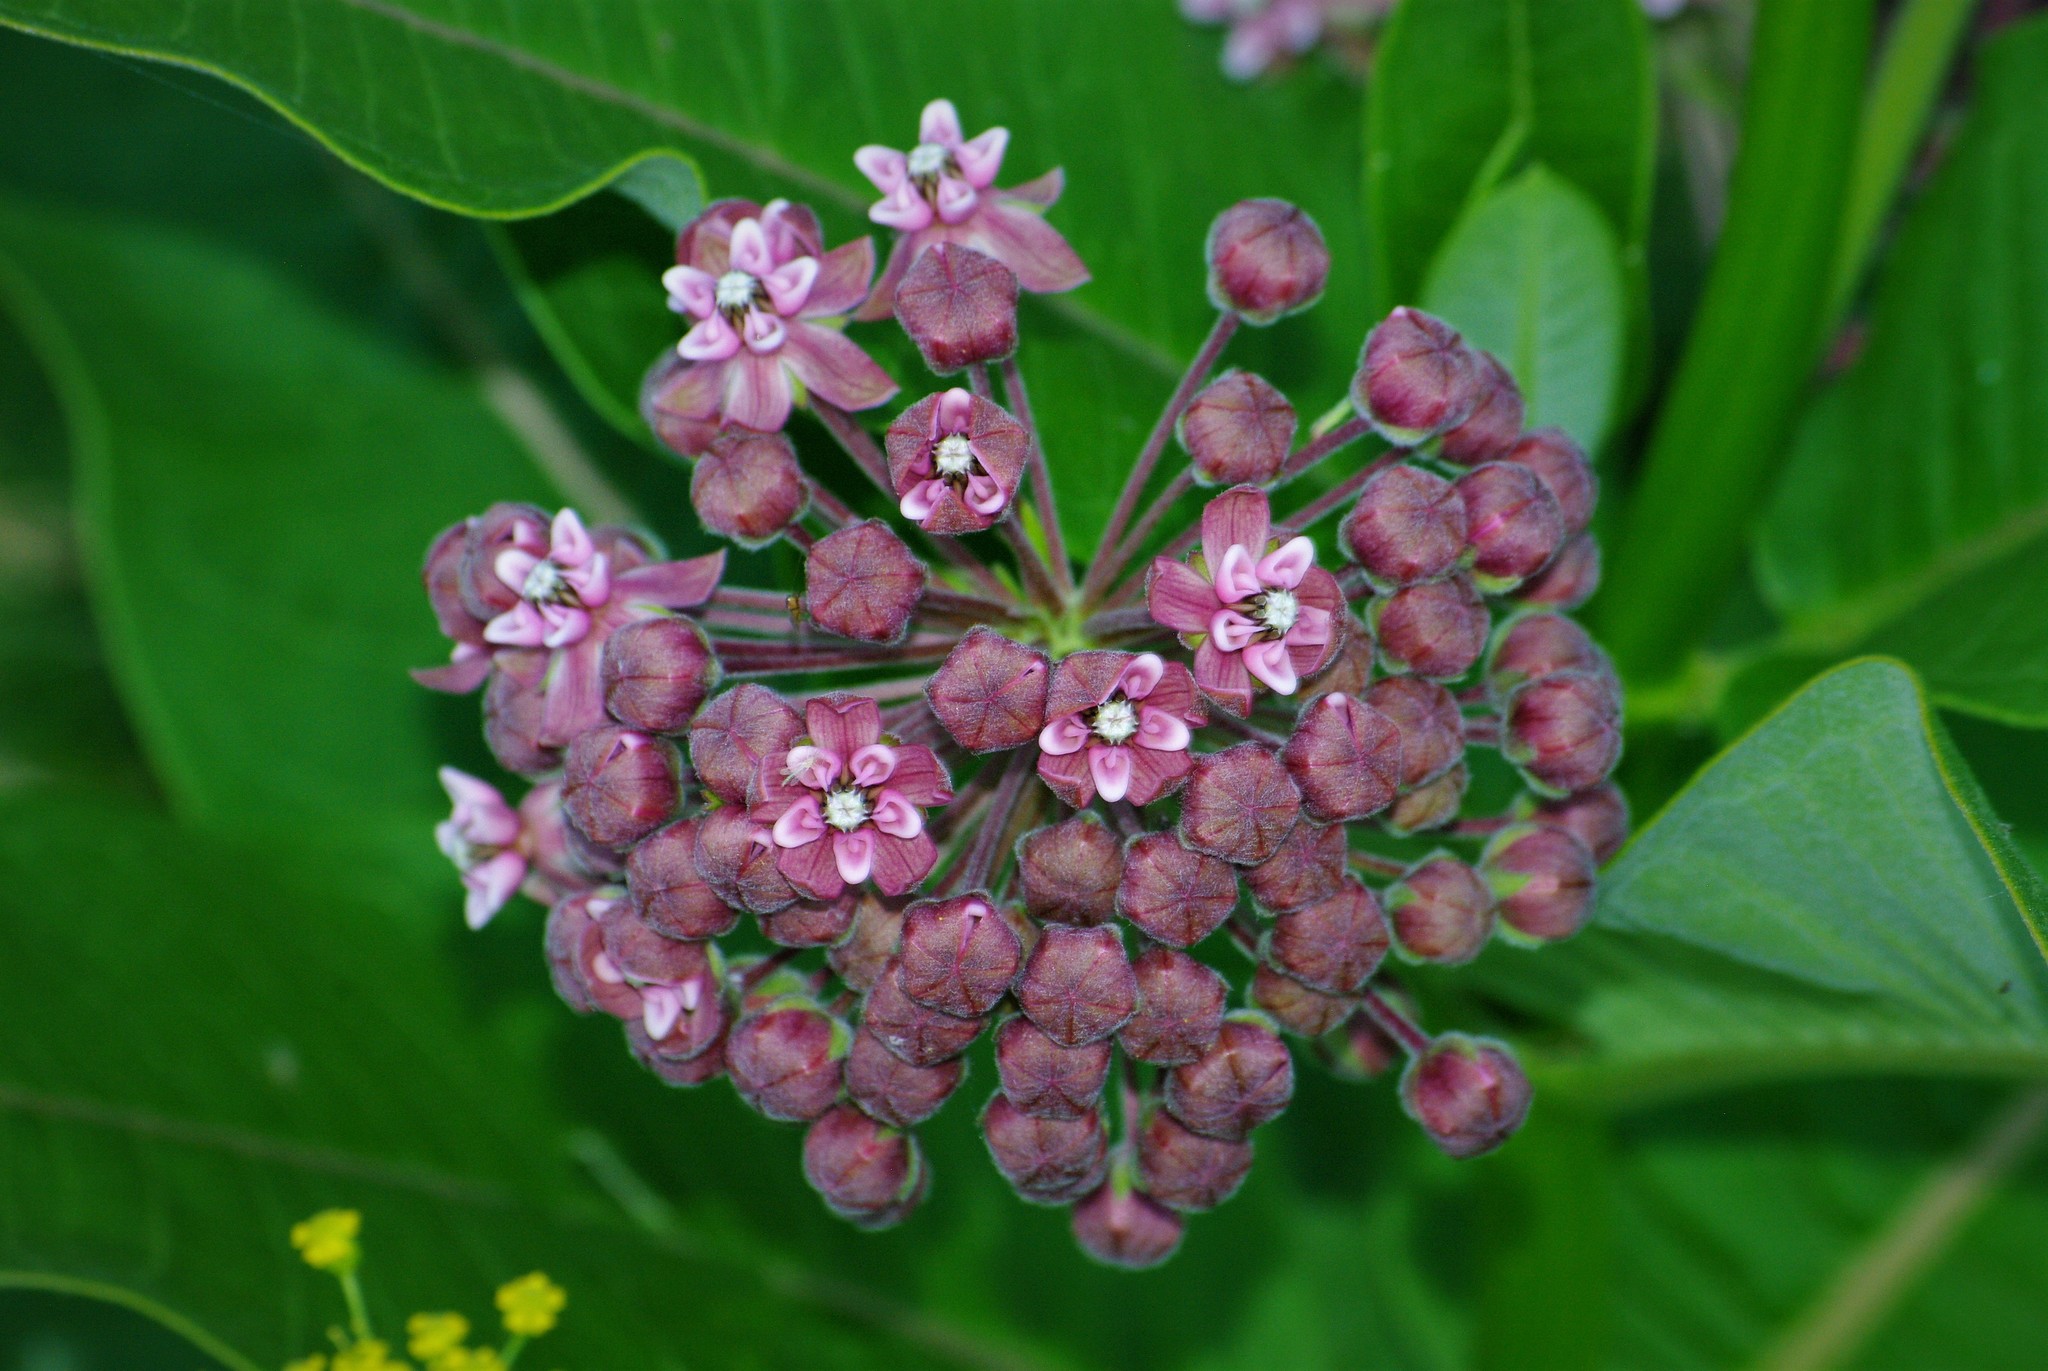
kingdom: Plantae
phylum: Tracheophyta
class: Magnoliopsida
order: Gentianales
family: Apocynaceae
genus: Asclepias
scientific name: Asclepias syriaca
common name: Common milkweed
